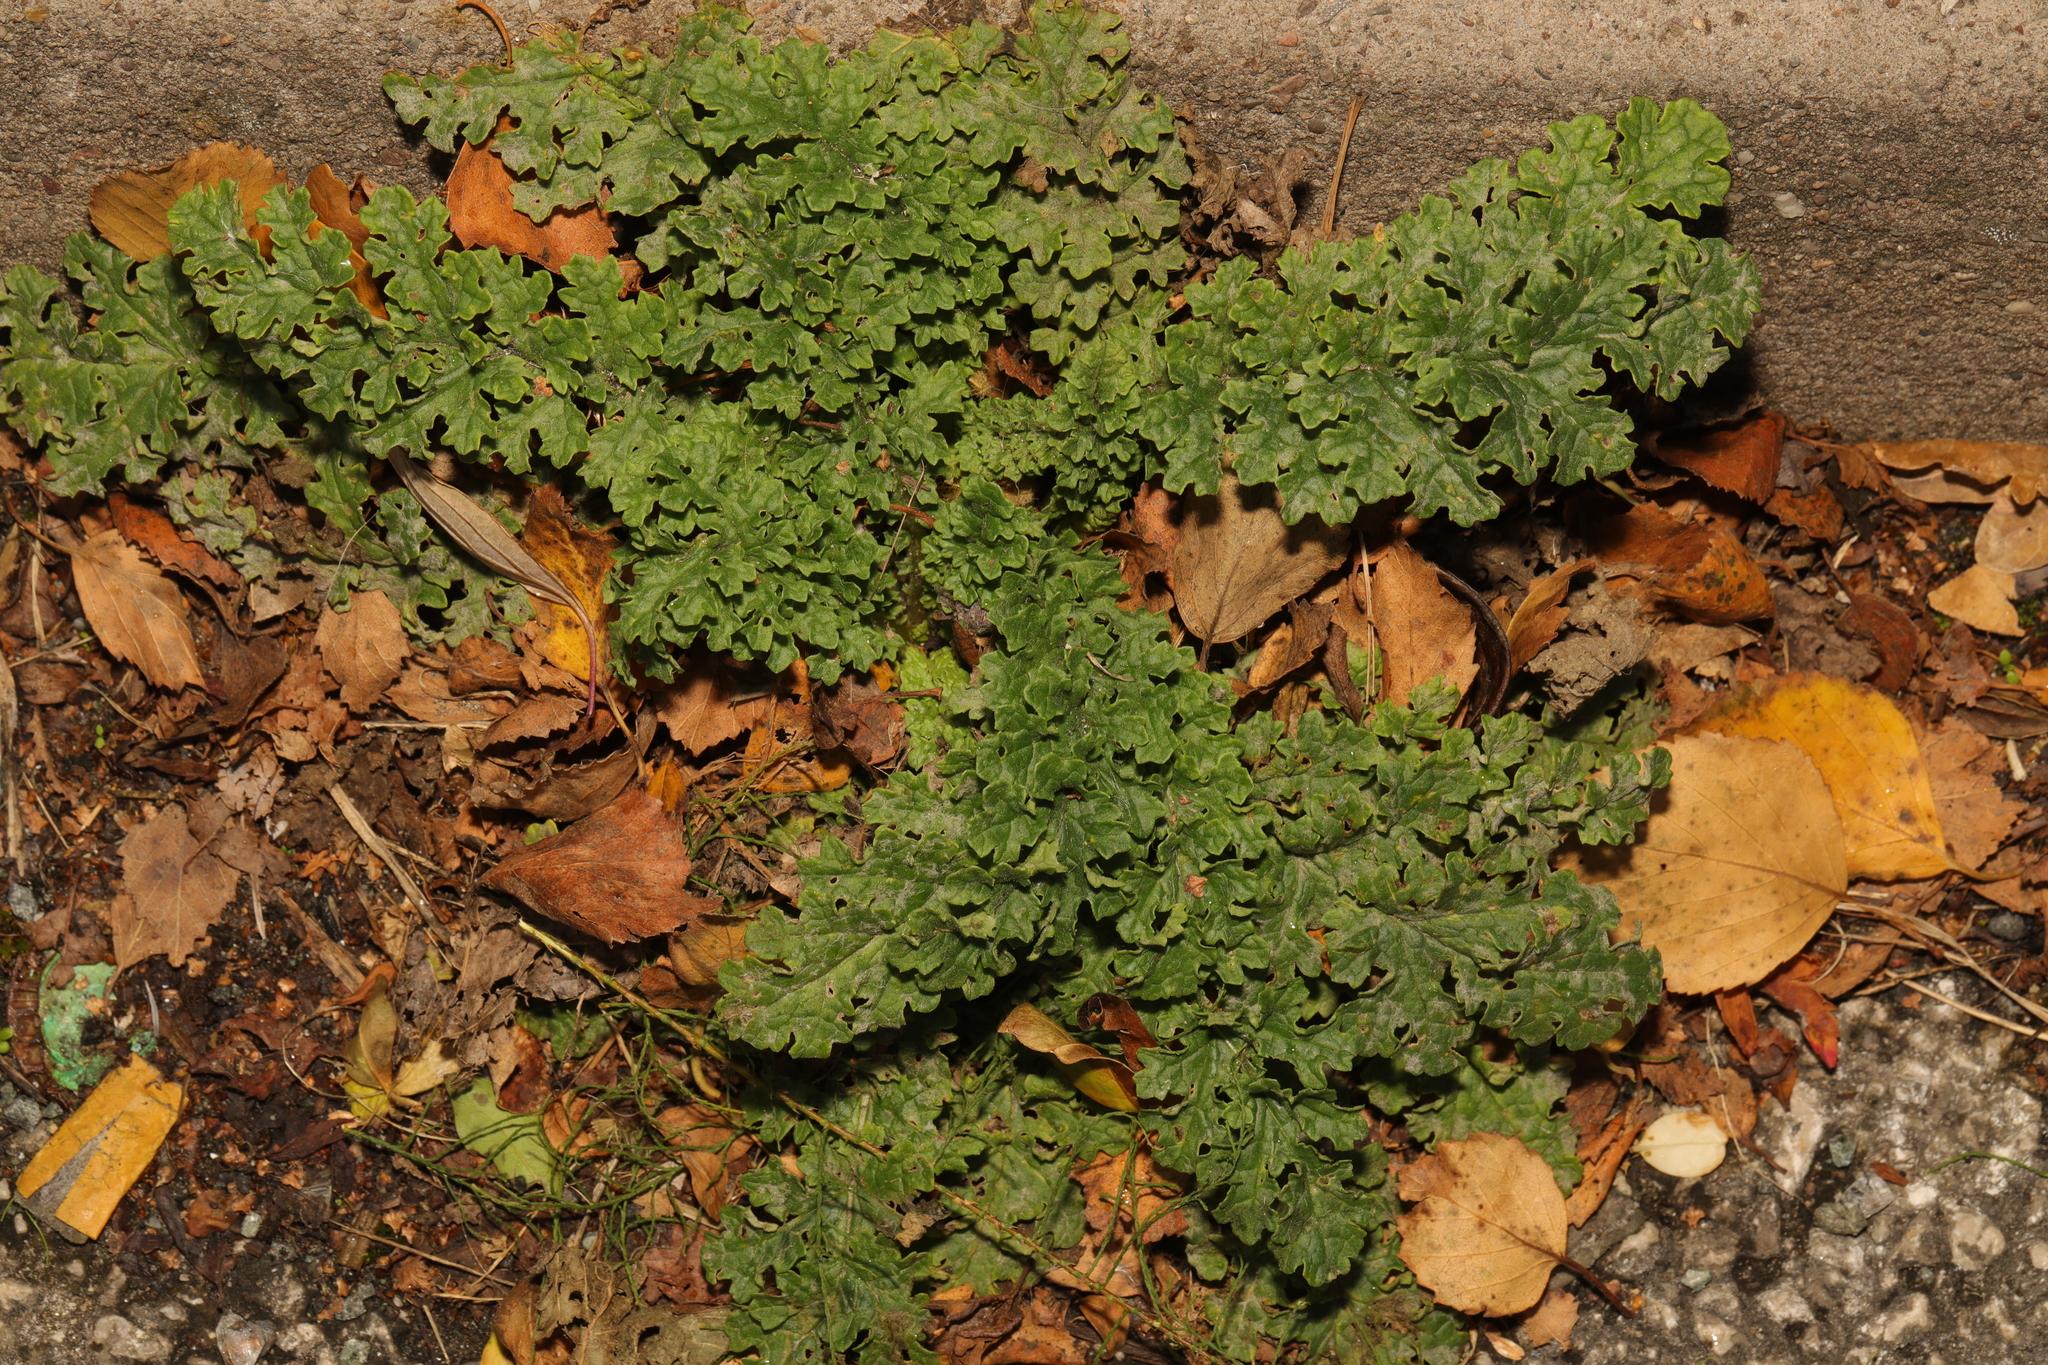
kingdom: Plantae
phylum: Tracheophyta
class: Magnoliopsida
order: Asterales
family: Asteraceae
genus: Jacobaea
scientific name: Jacobaea vulgaris
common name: Stinking willie
